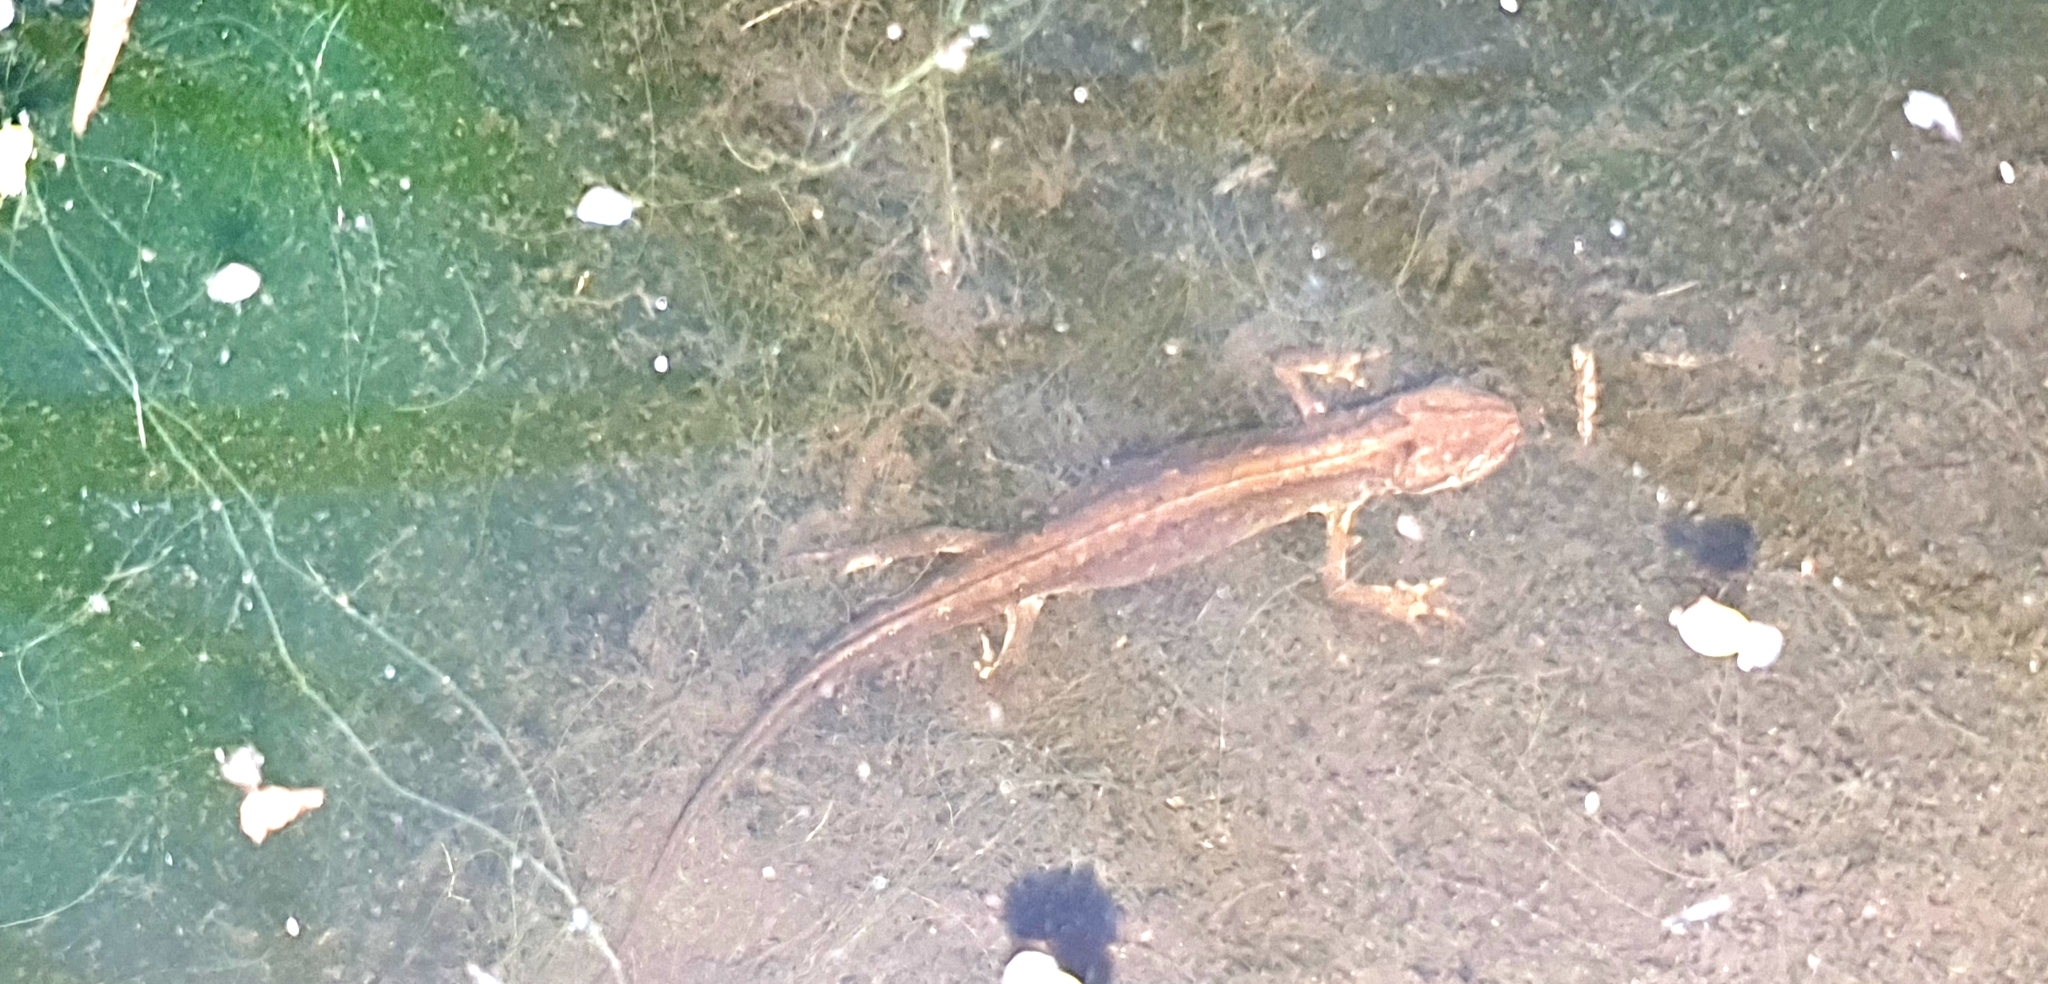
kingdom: Animalia
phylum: Chordata
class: Amphibia
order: Caudata
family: Salamandridae
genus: Lissotriton
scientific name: Lissotriton vulgaris
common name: Smooth newt
